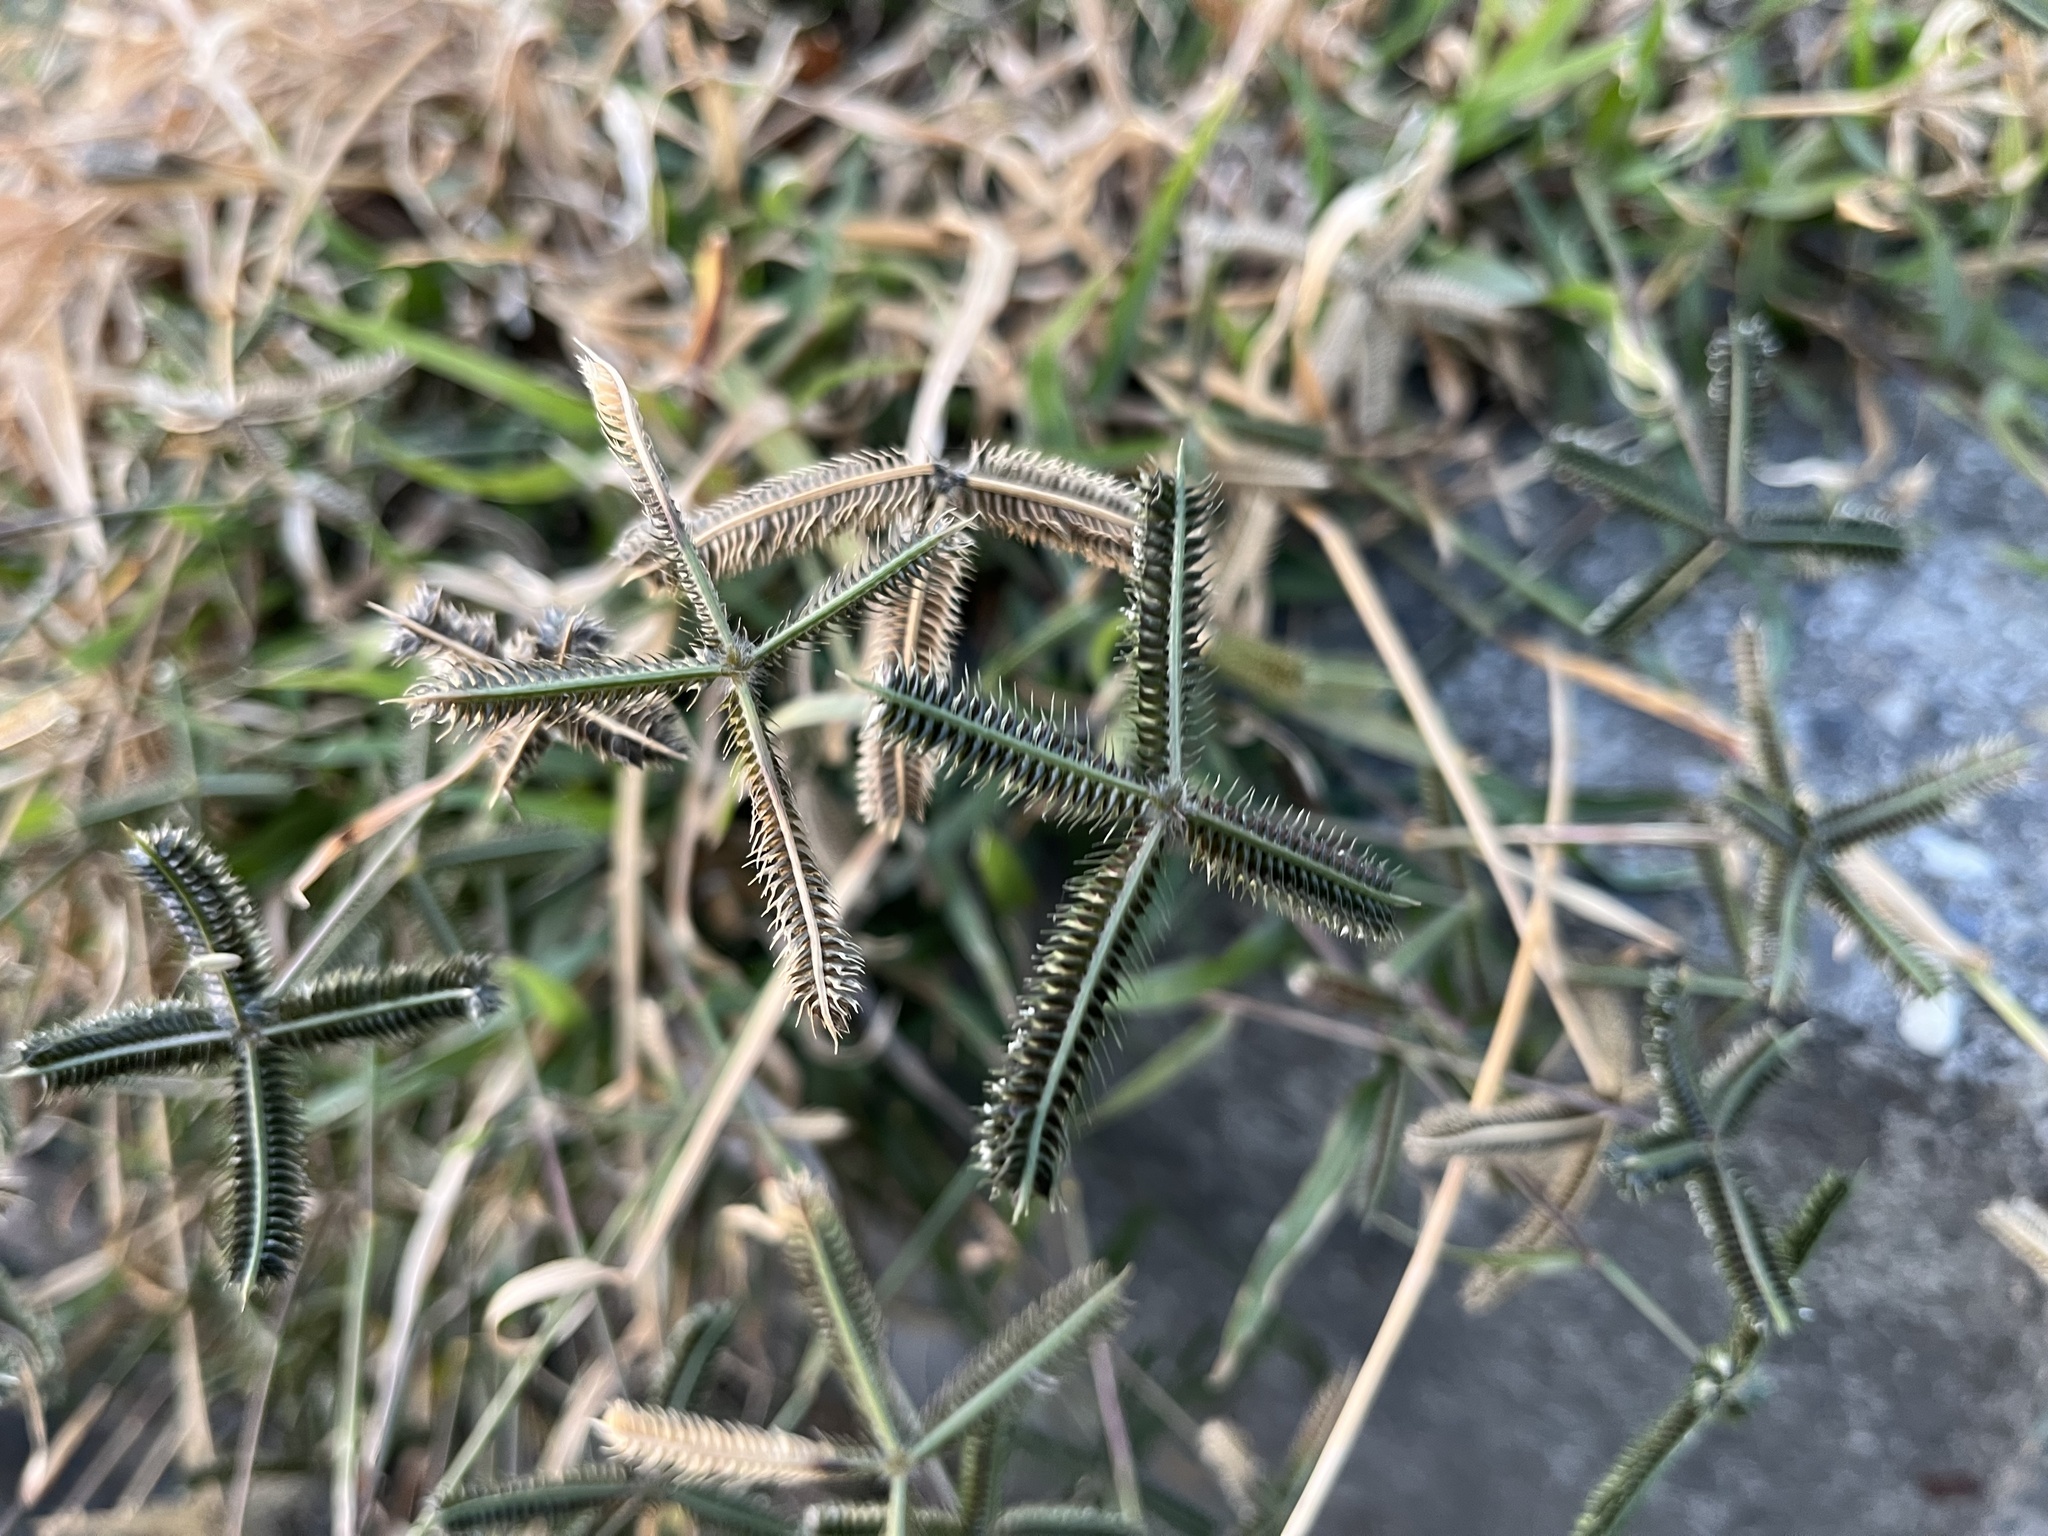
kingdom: Plantae
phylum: Tracheophyta
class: Liliopsida
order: Poales
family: Poaceae
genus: Dactyloctenium
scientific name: Dactyloctenium aegyptium
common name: Egyptian grass
